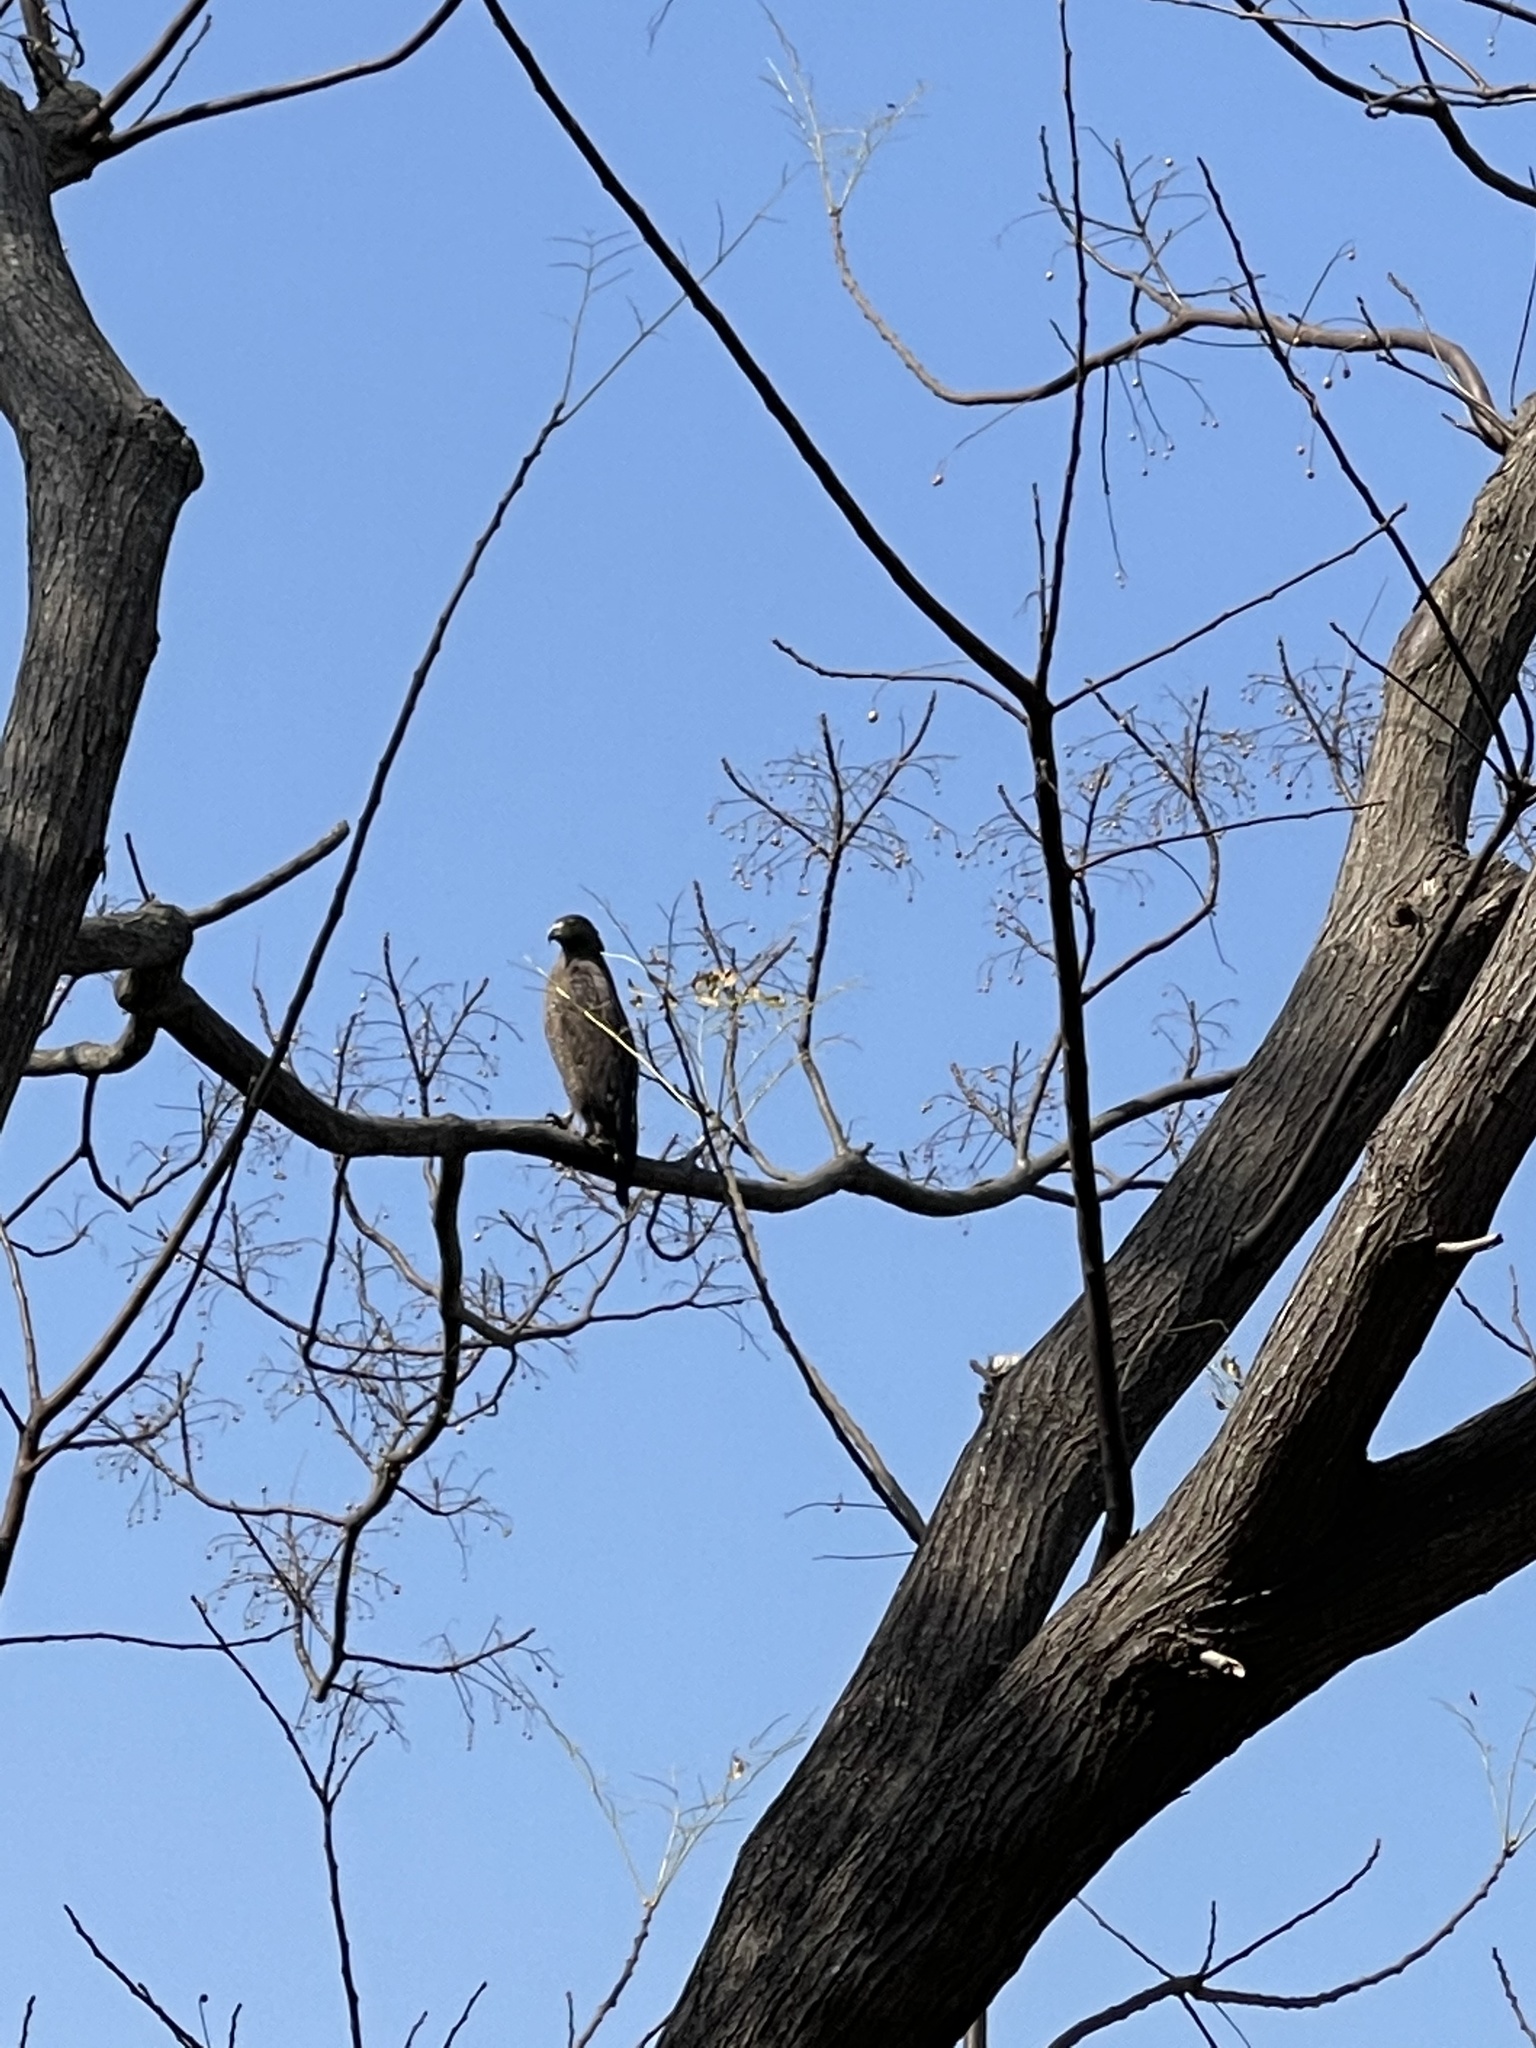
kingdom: Animalia
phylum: Chordata
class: Aves
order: Accipitriformes
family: Accipitridae
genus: Spilornis
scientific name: Spilornis cheela
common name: Crested serpent eagle
